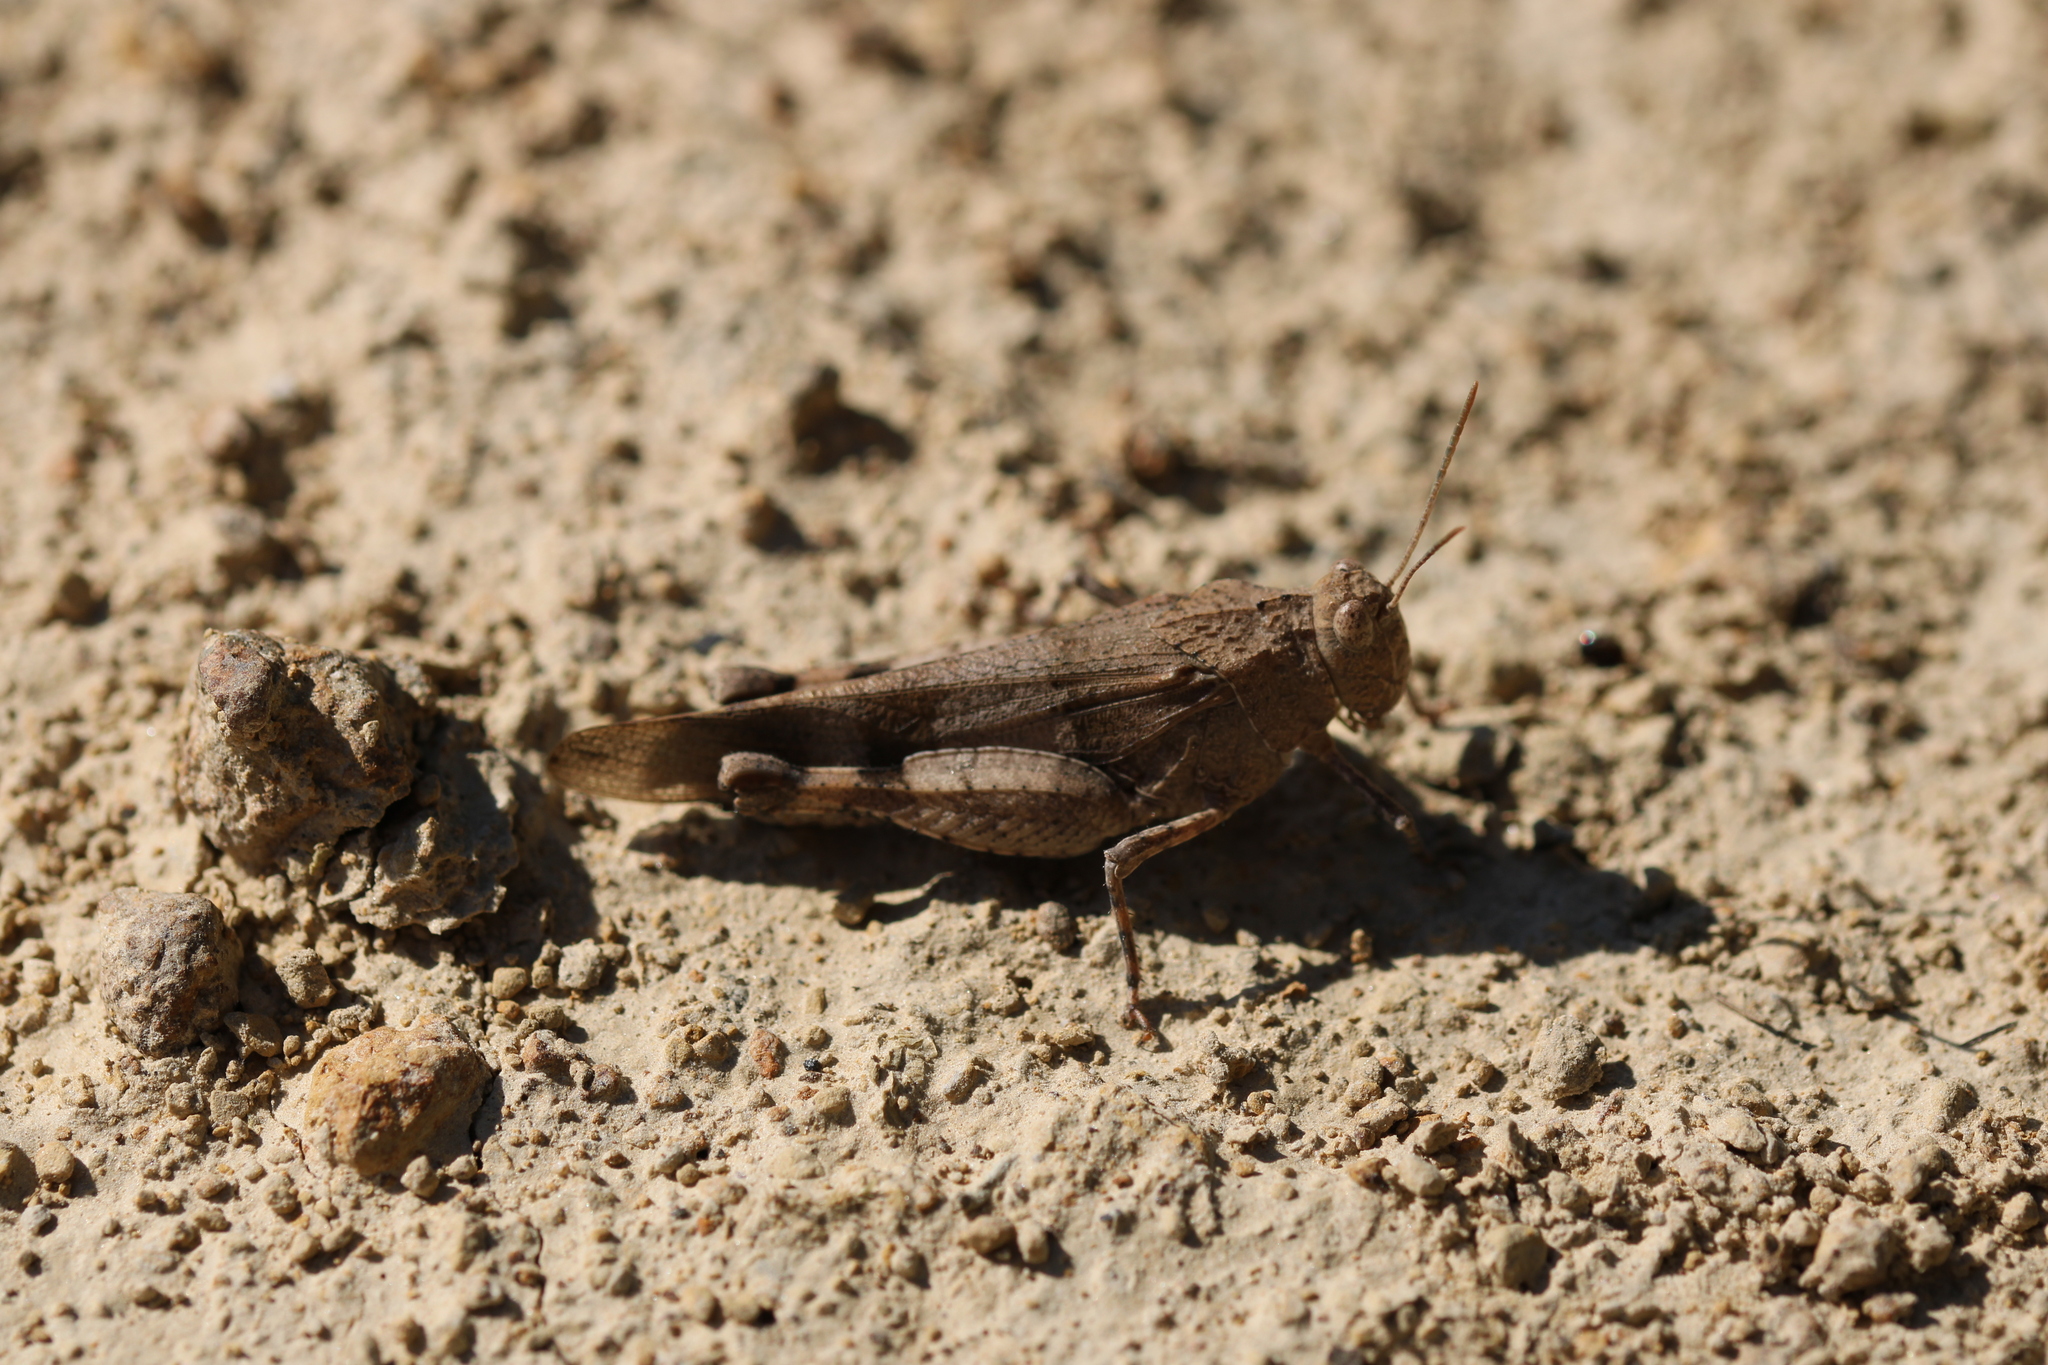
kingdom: Animalia
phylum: Arthropoda
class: Insecta
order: Orthoptera
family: Acrididae
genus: Oedipoda
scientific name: Oedipoda caerulescens
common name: Blue-winged grasshopper
